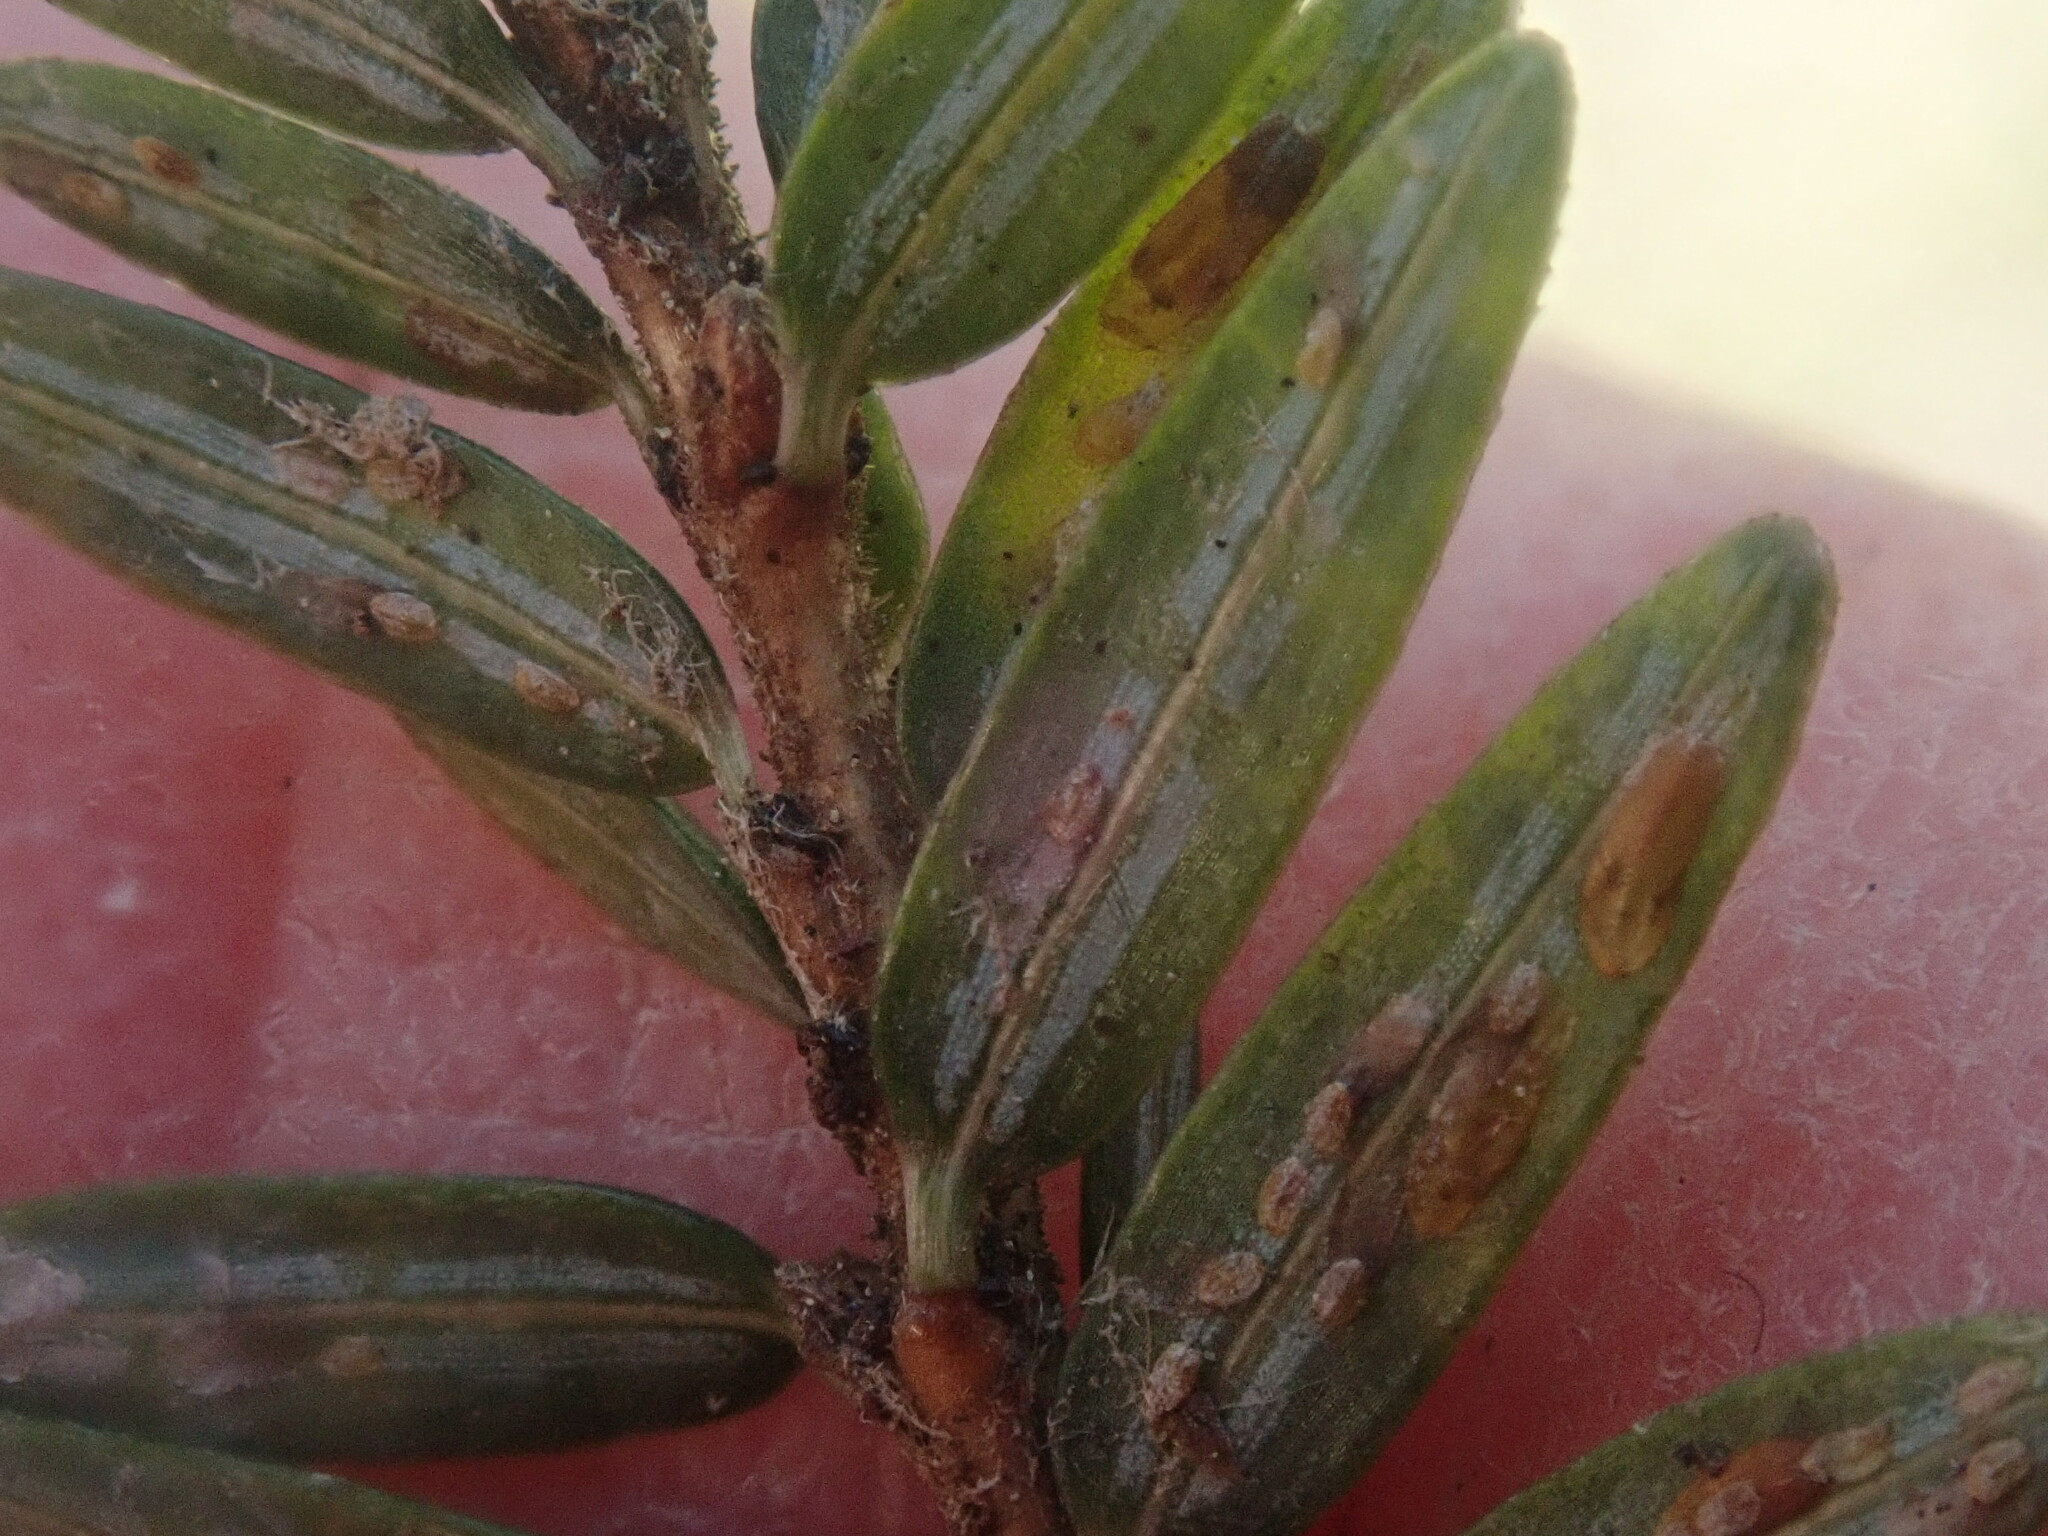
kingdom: Animalia
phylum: Arthropoda
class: Insecta
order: Hemiptera
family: Diaspididae
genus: Fiorinia
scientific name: Fiorinia externa
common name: Elongate hemlock scale
